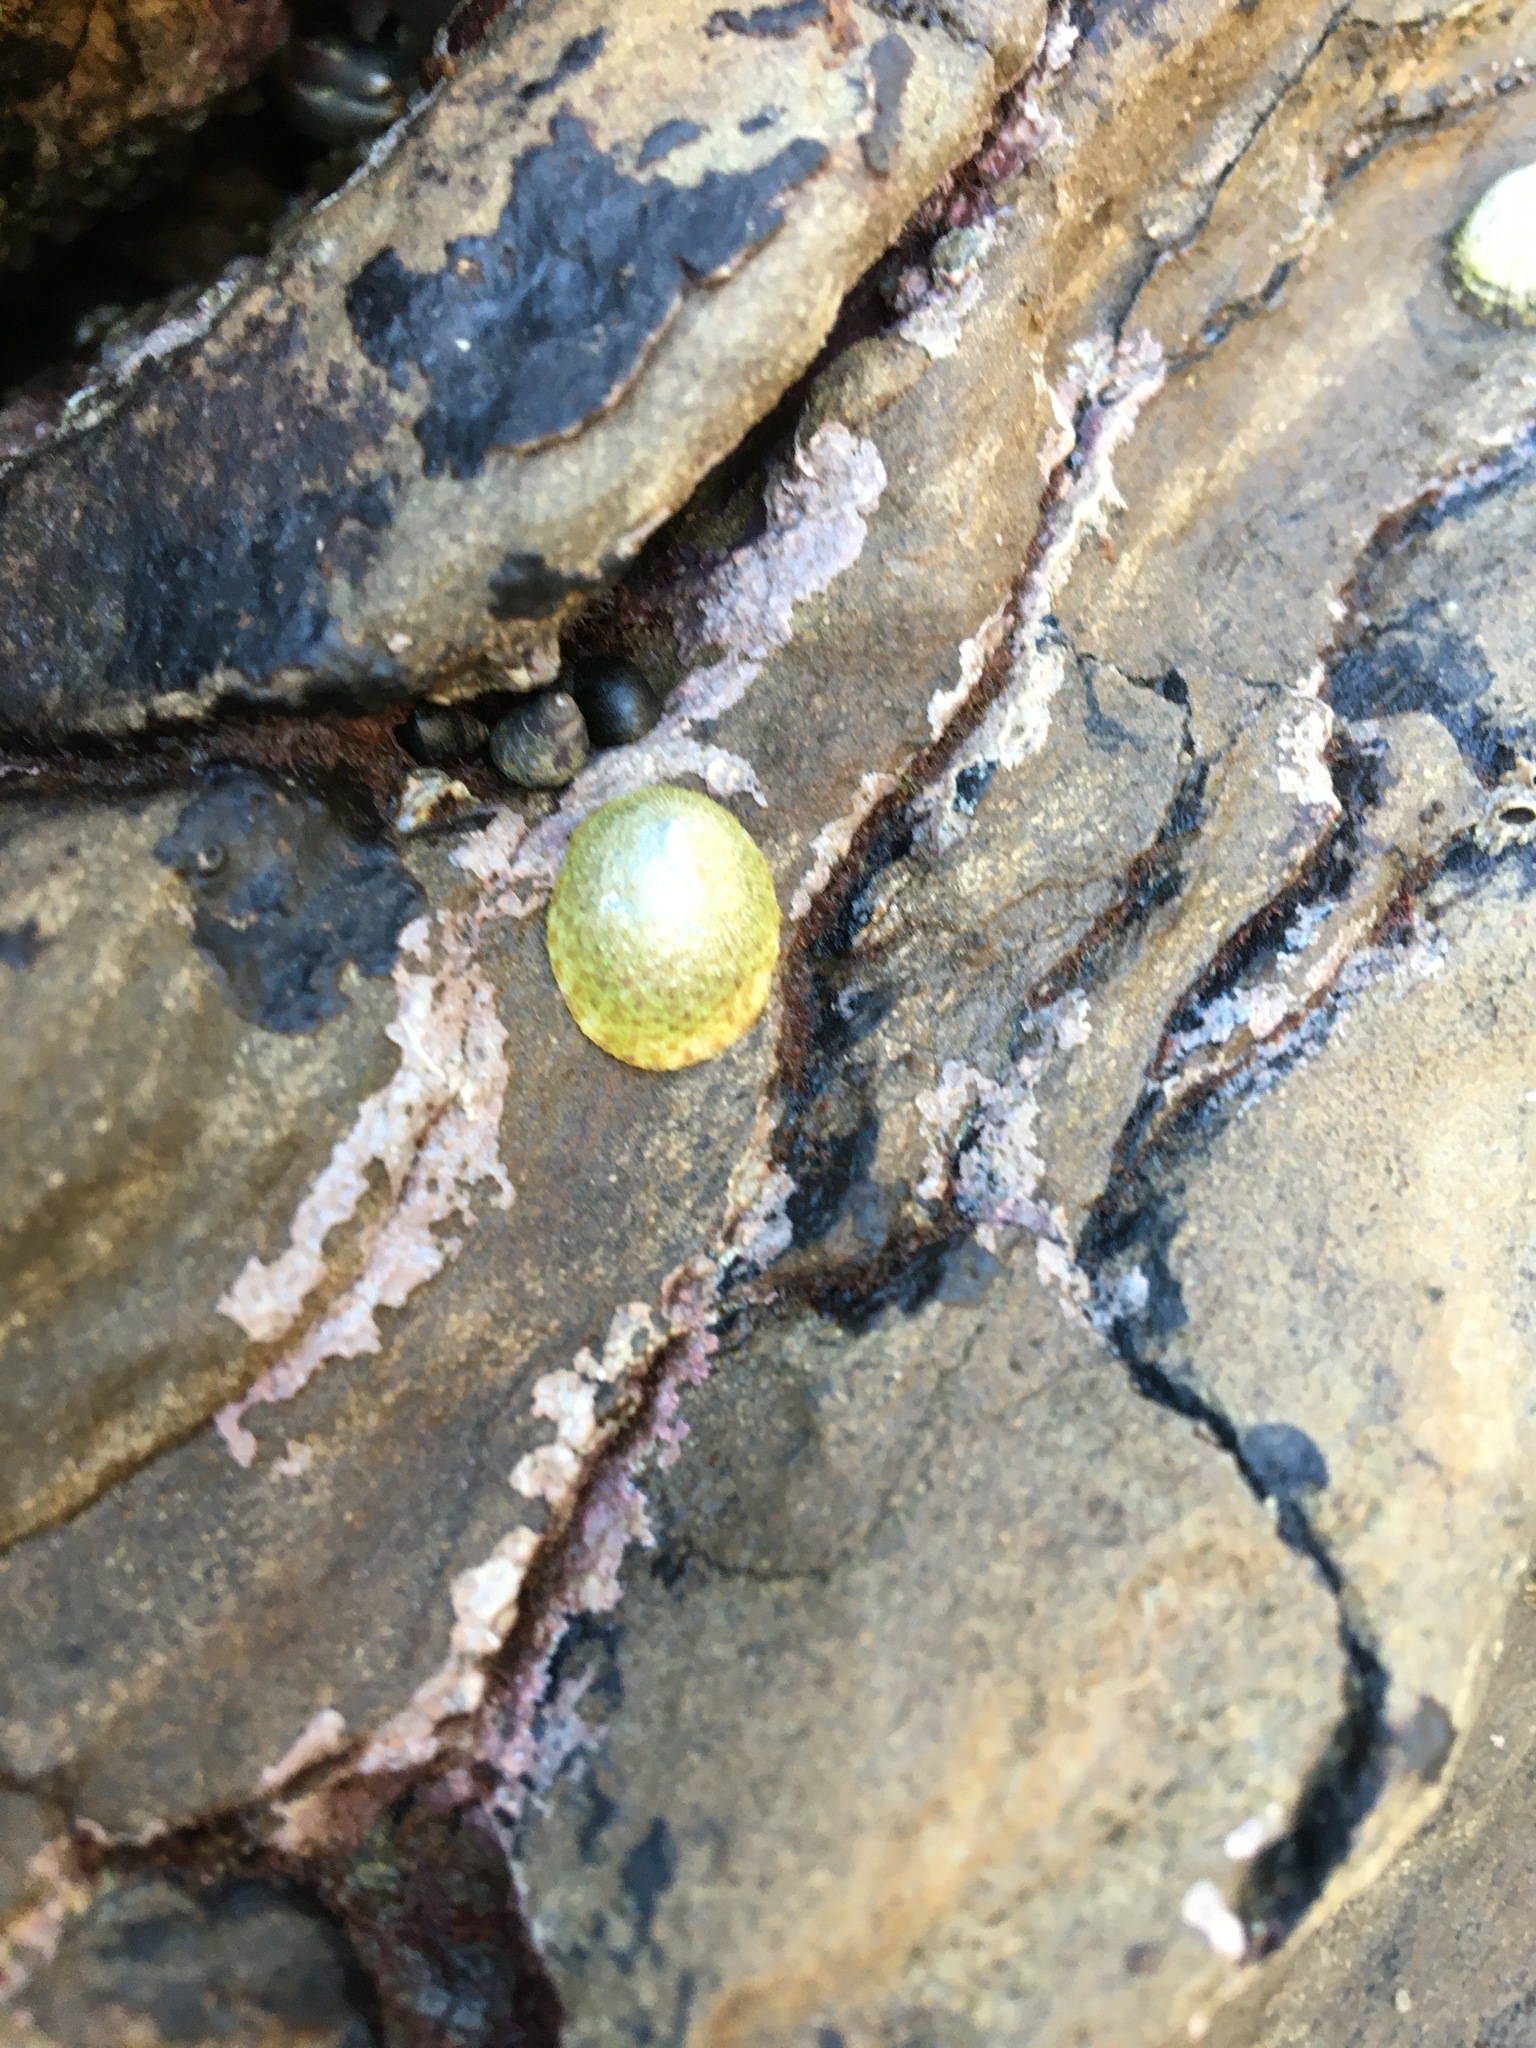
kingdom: Animalia
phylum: Mollusca
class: Gastropoda
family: Lottiidae
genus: Lottia
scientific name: Lottia limatula
